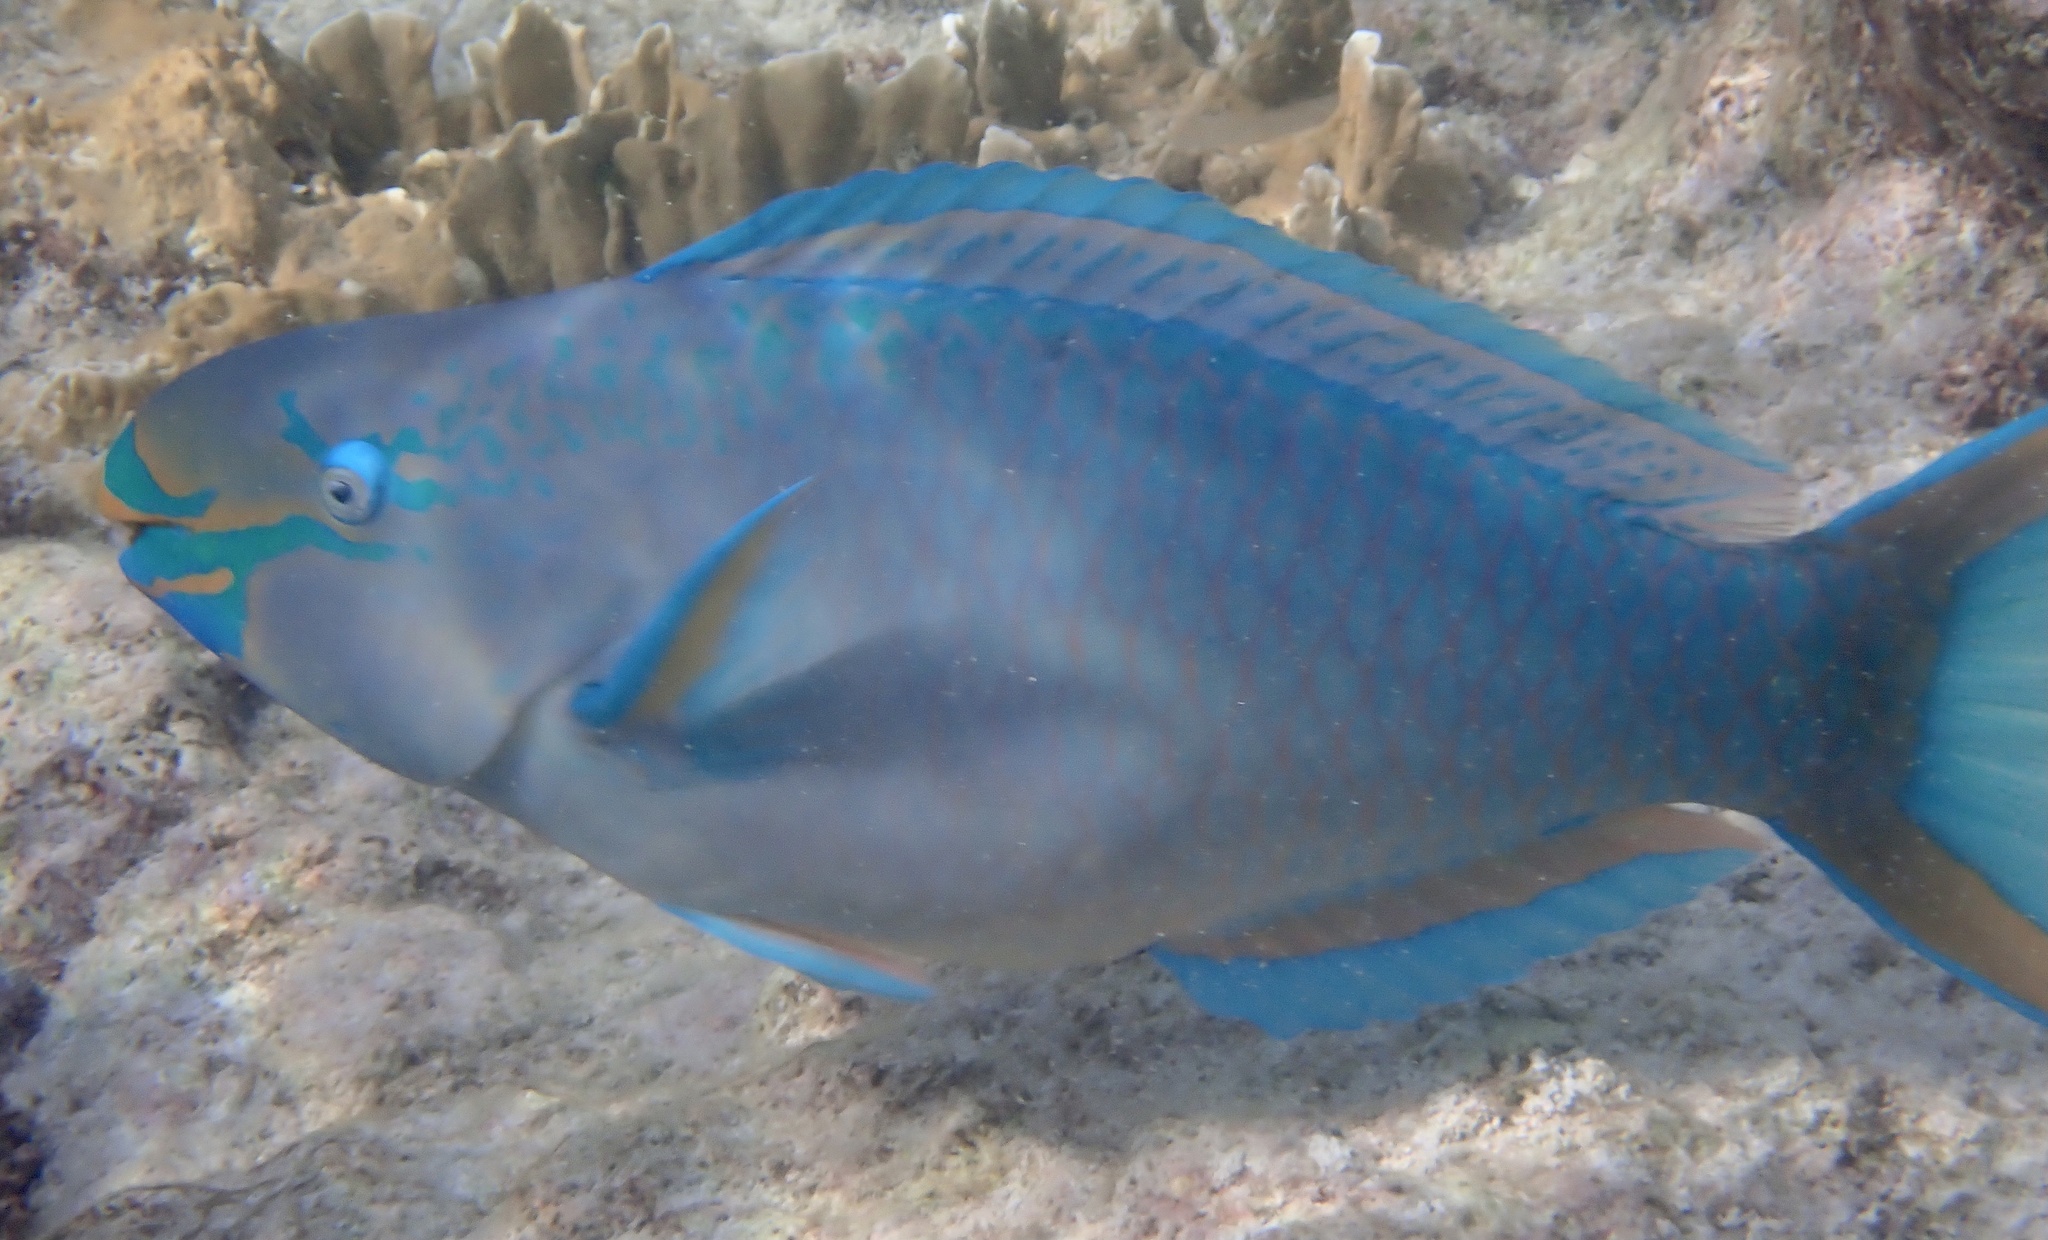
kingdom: Animalia
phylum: Chordata
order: Perciformes
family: Scaridae
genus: Scarus
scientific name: Scarus vetula
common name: Queen parrotfish
